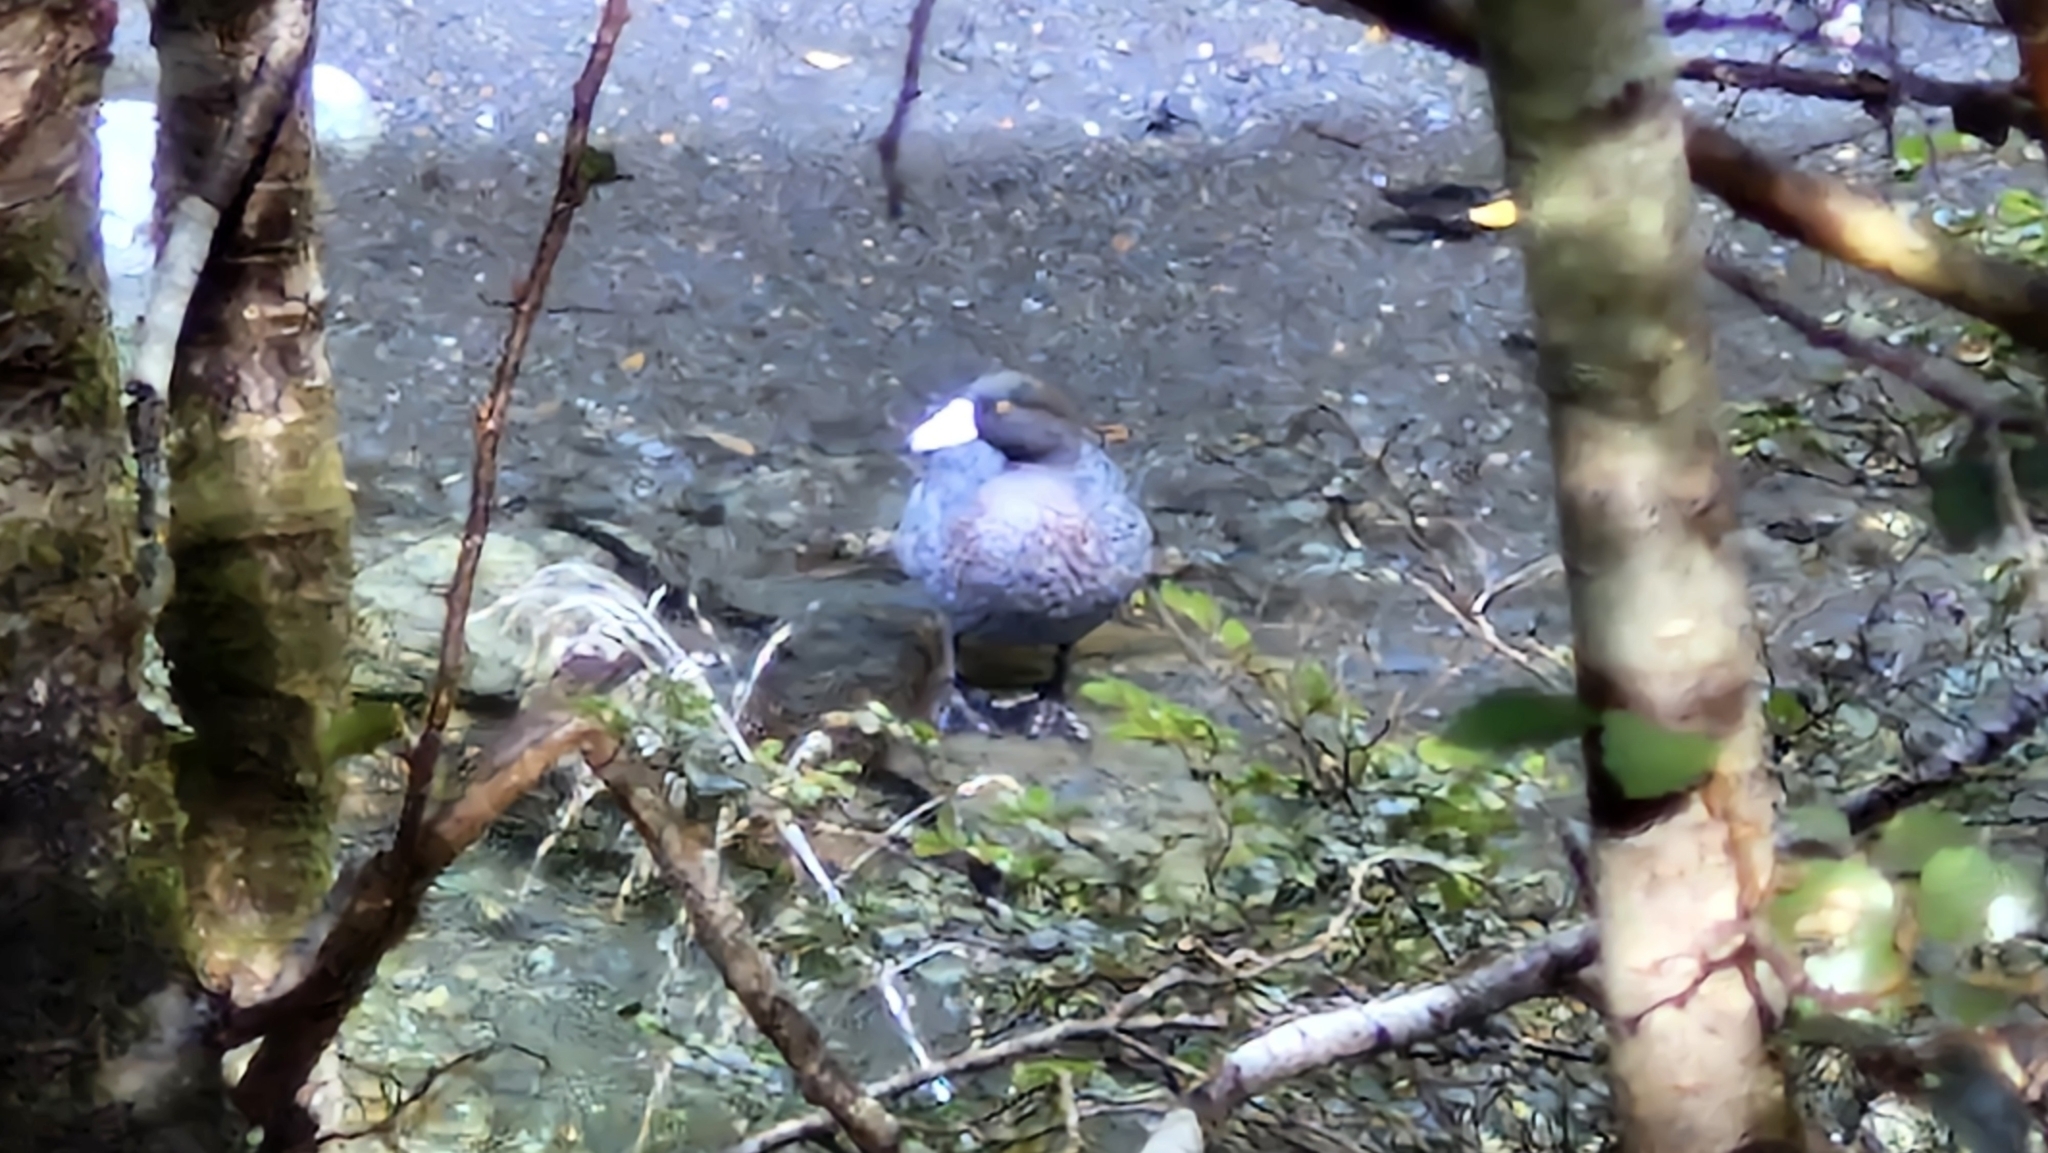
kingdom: Animalia
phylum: Chordata
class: Aves
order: Anseriformes
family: Anatidae
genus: Hymenolaimus
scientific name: Hymenolaimus malacorhynchos
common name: Blue duck
